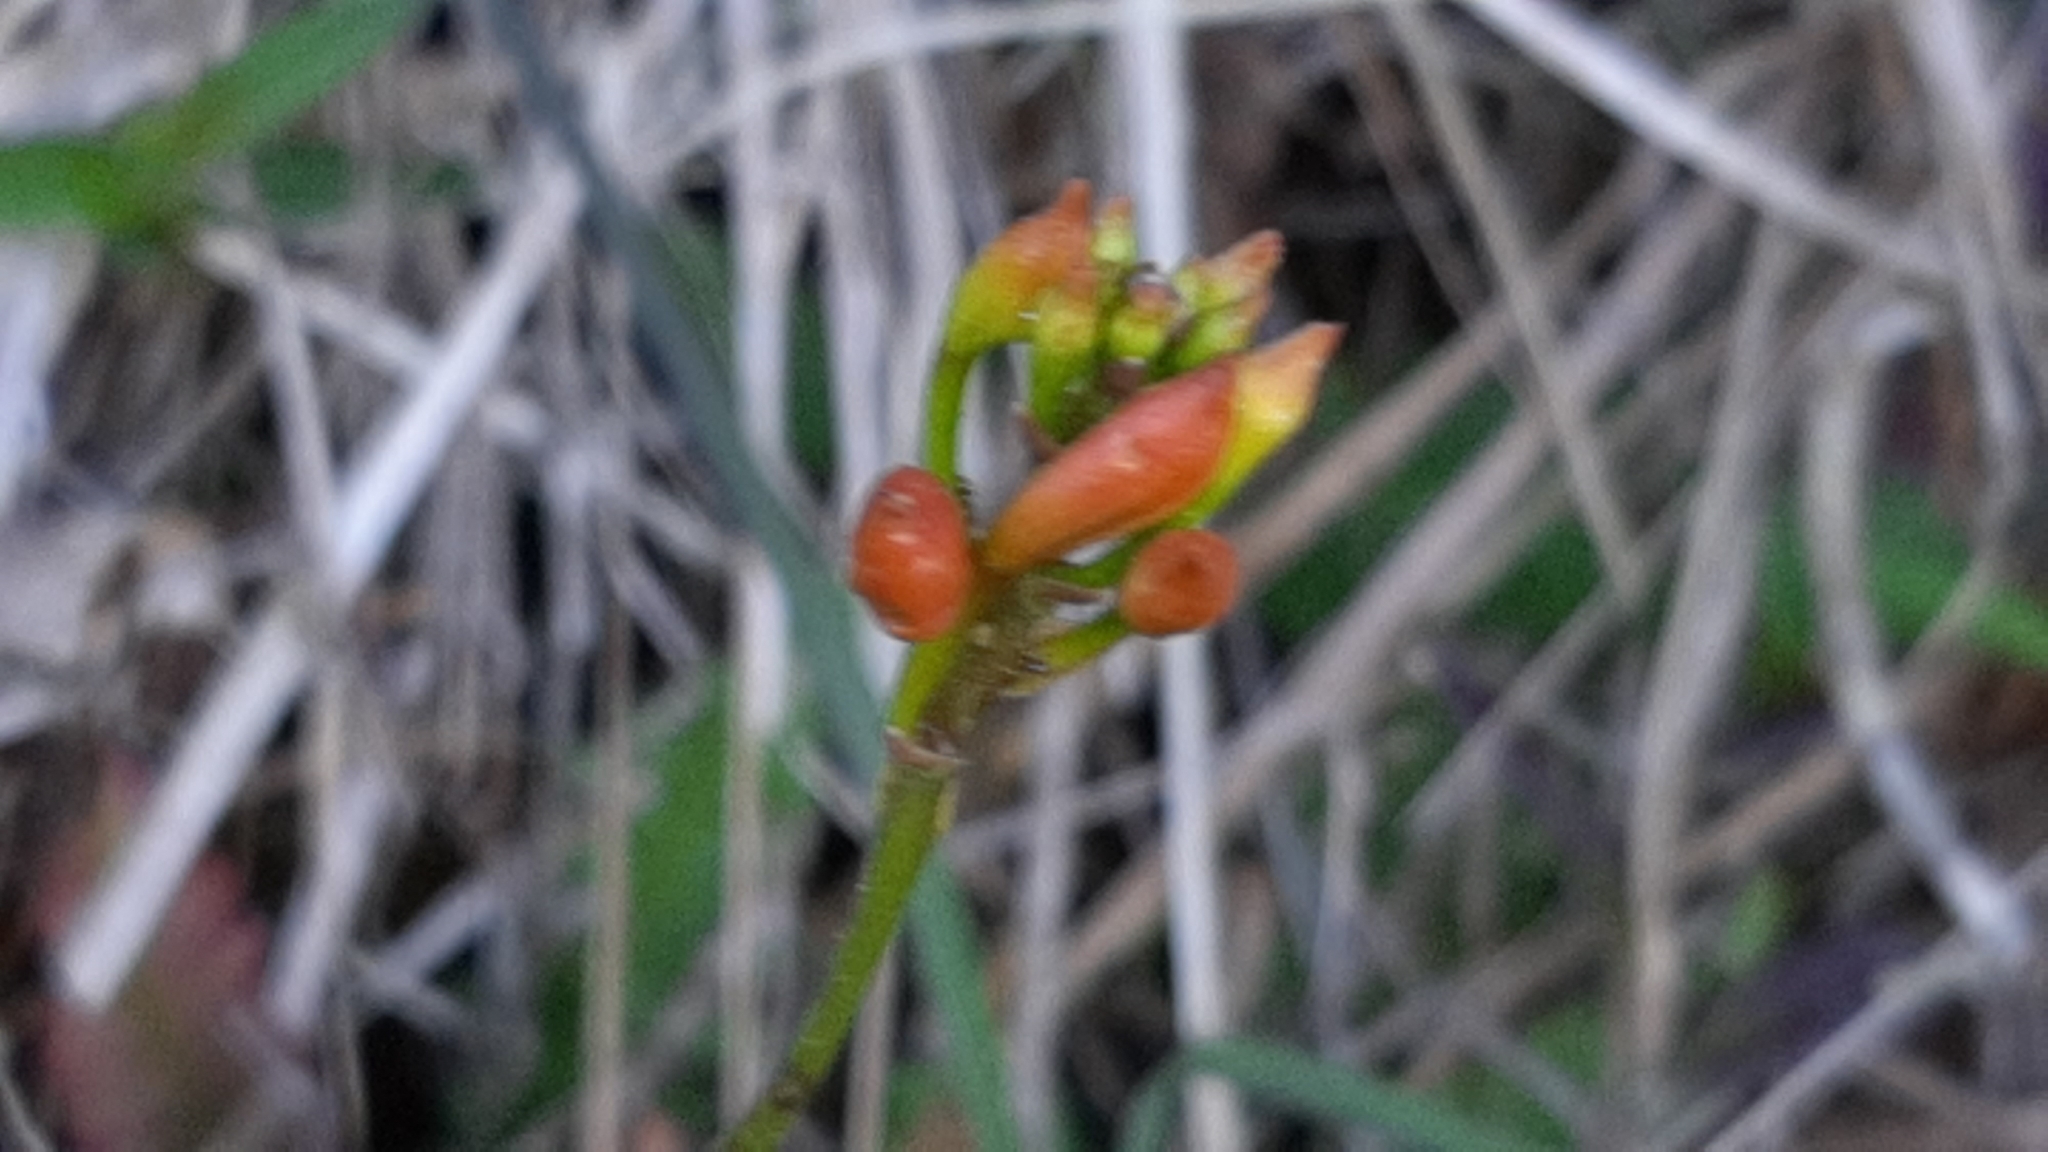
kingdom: Plantae
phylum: Tracheophyta
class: Liliopsida
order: Asparagales
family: Orchidaceae
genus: Epidendrum
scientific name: Epidendrum radicans
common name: Fire star orchid
